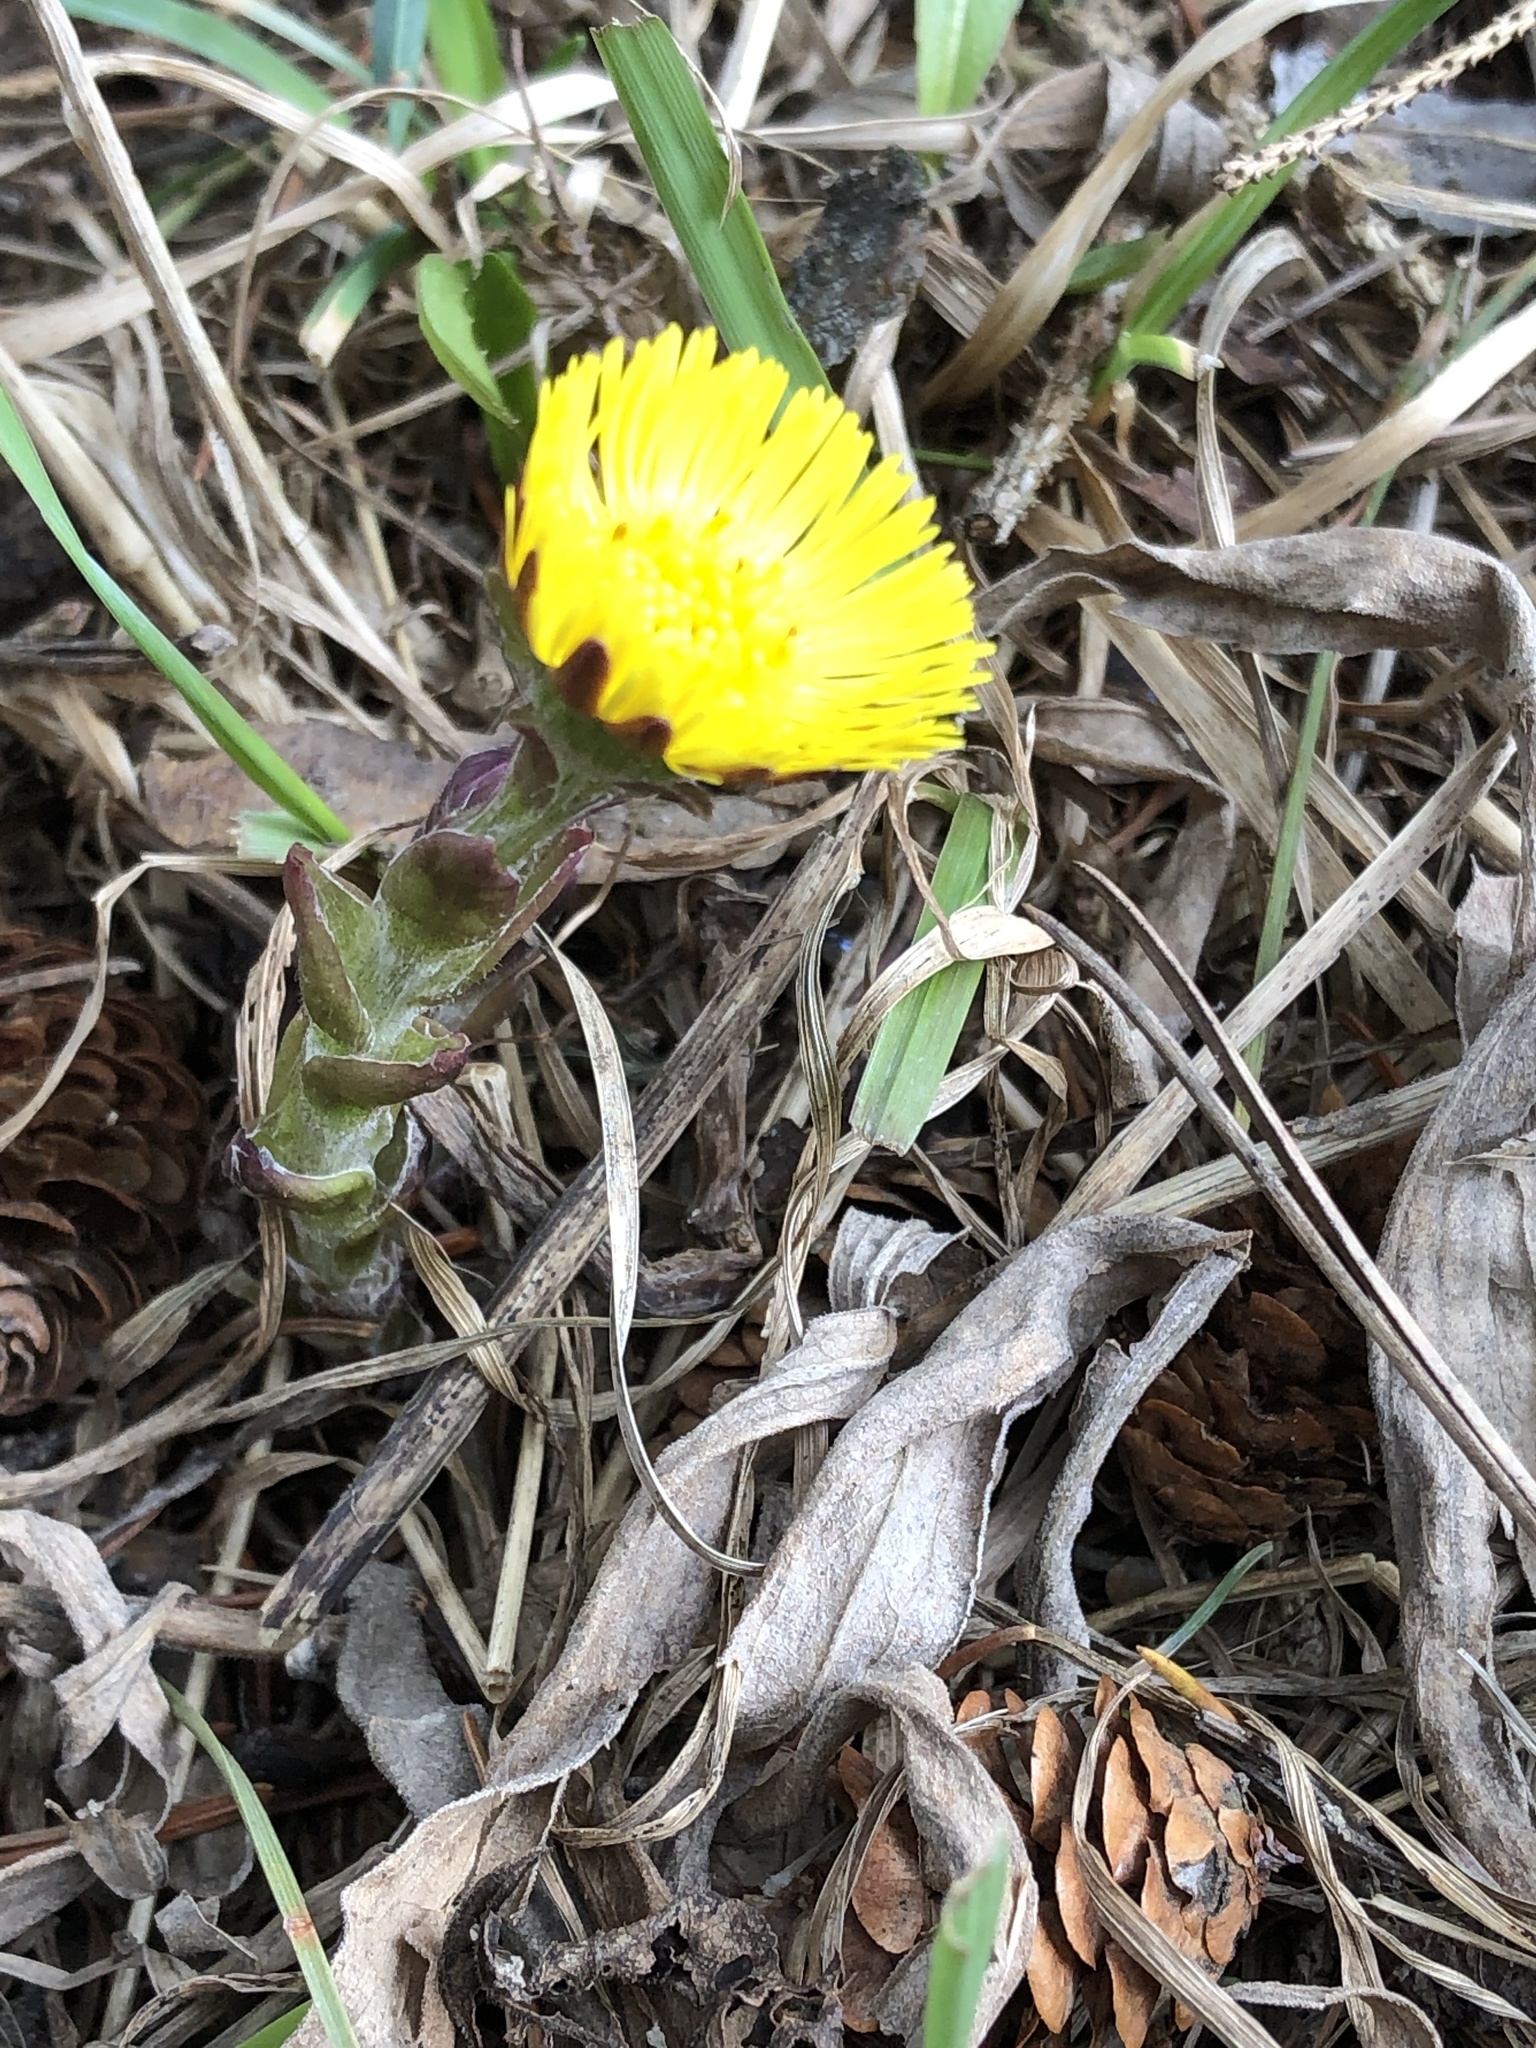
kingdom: Plantae
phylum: Tracheophyta
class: Magnoliopsida
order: Asterales
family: Asteraceae
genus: Tussilago
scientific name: Tussilago farfara
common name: Coltsfoot
